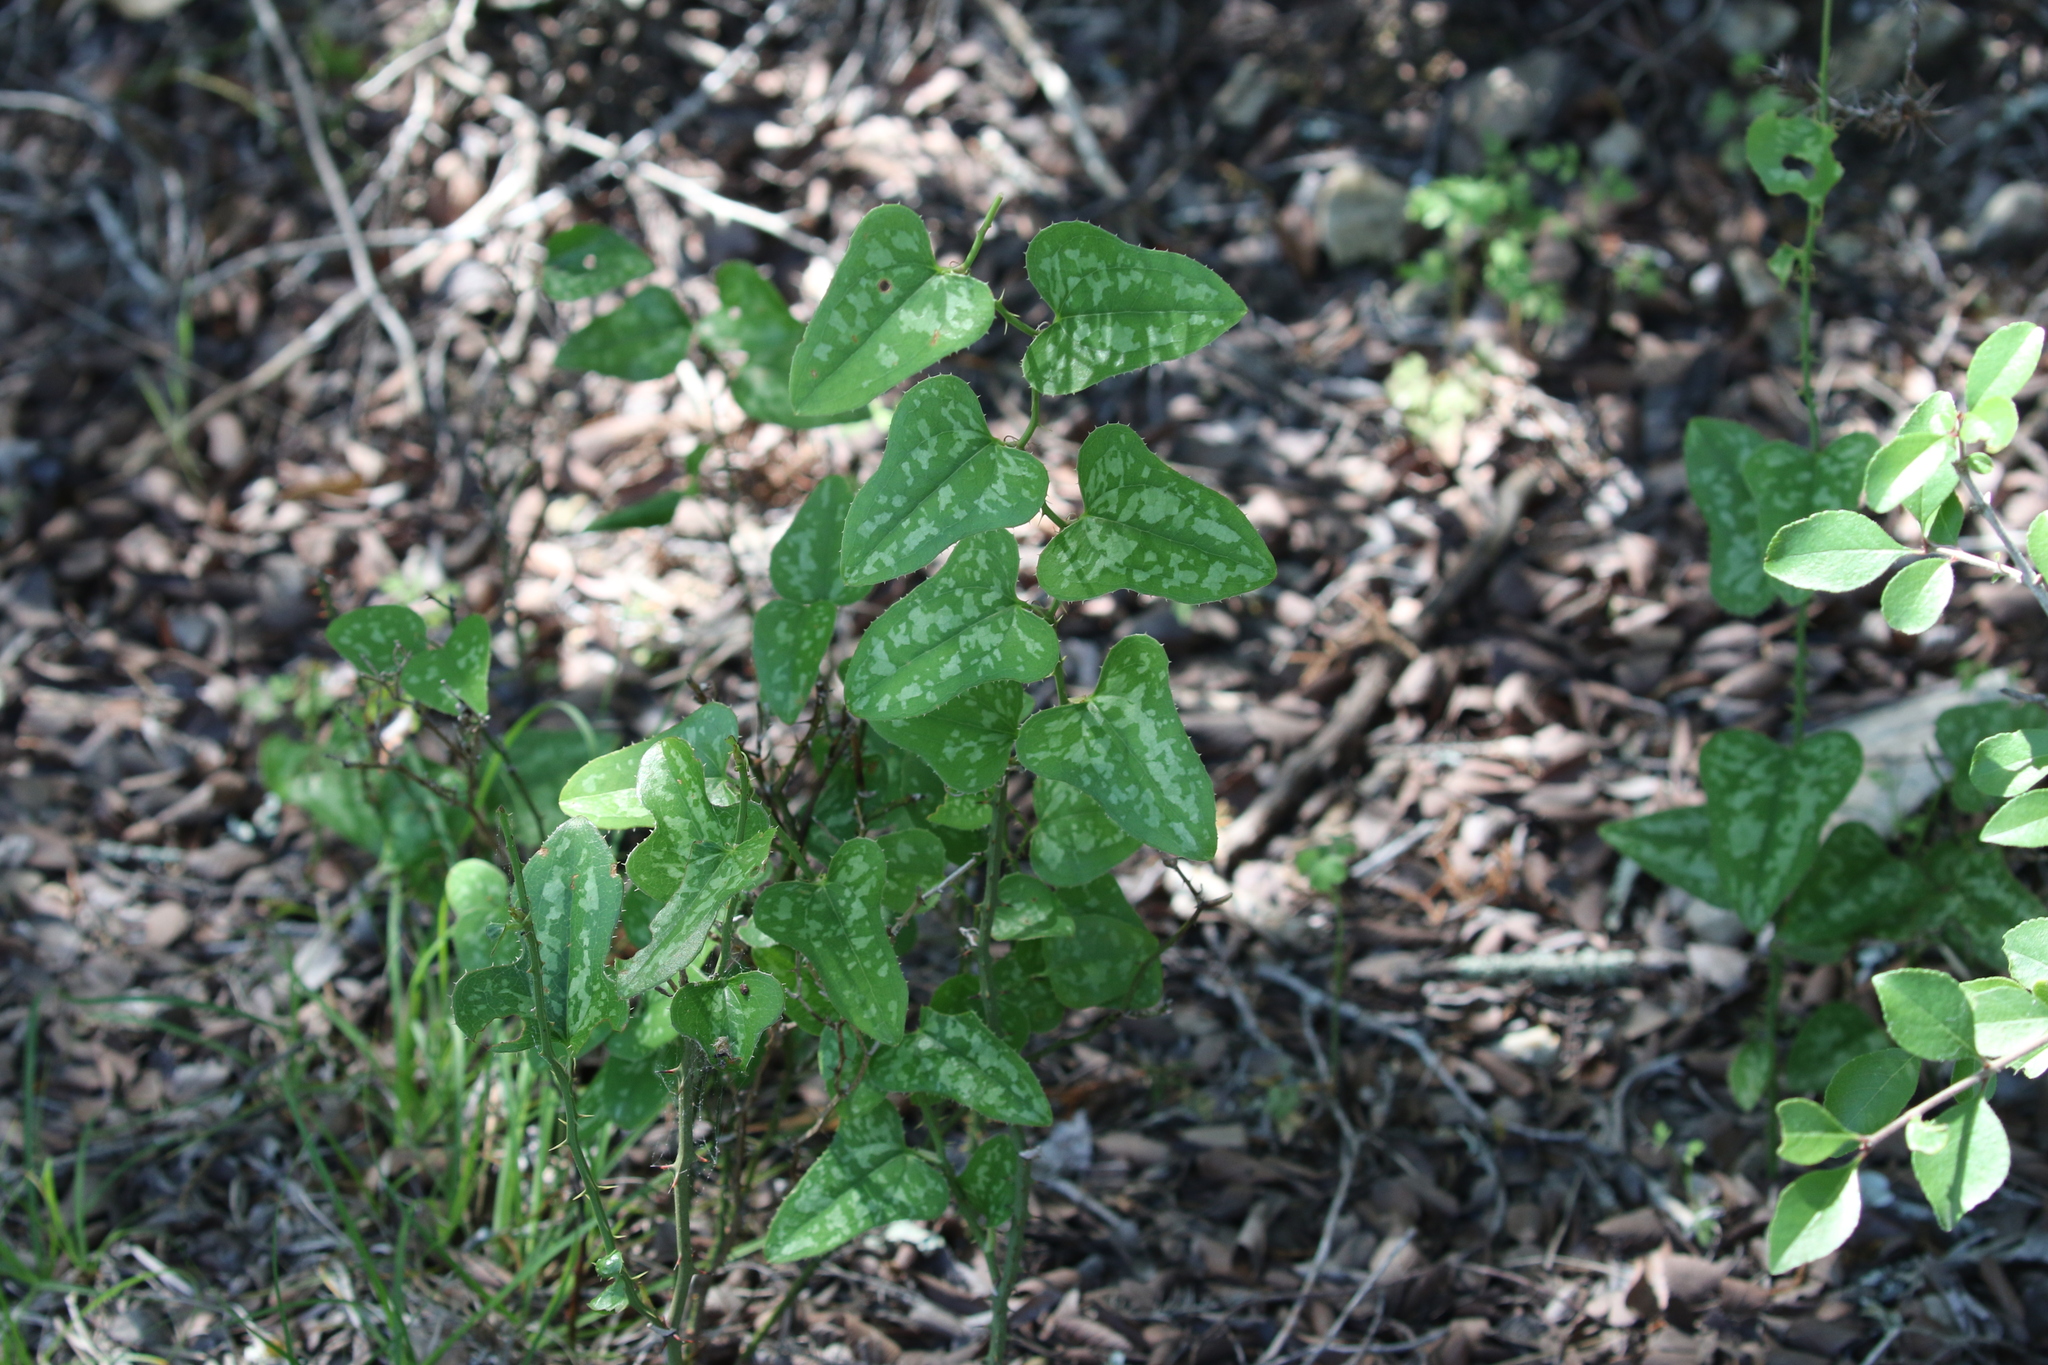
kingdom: Plantae
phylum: Tracheophyta
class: Liliopsida
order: Liliales
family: Smilacaceae
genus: Smilax
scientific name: Smilax bona-nox
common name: Catbrier
